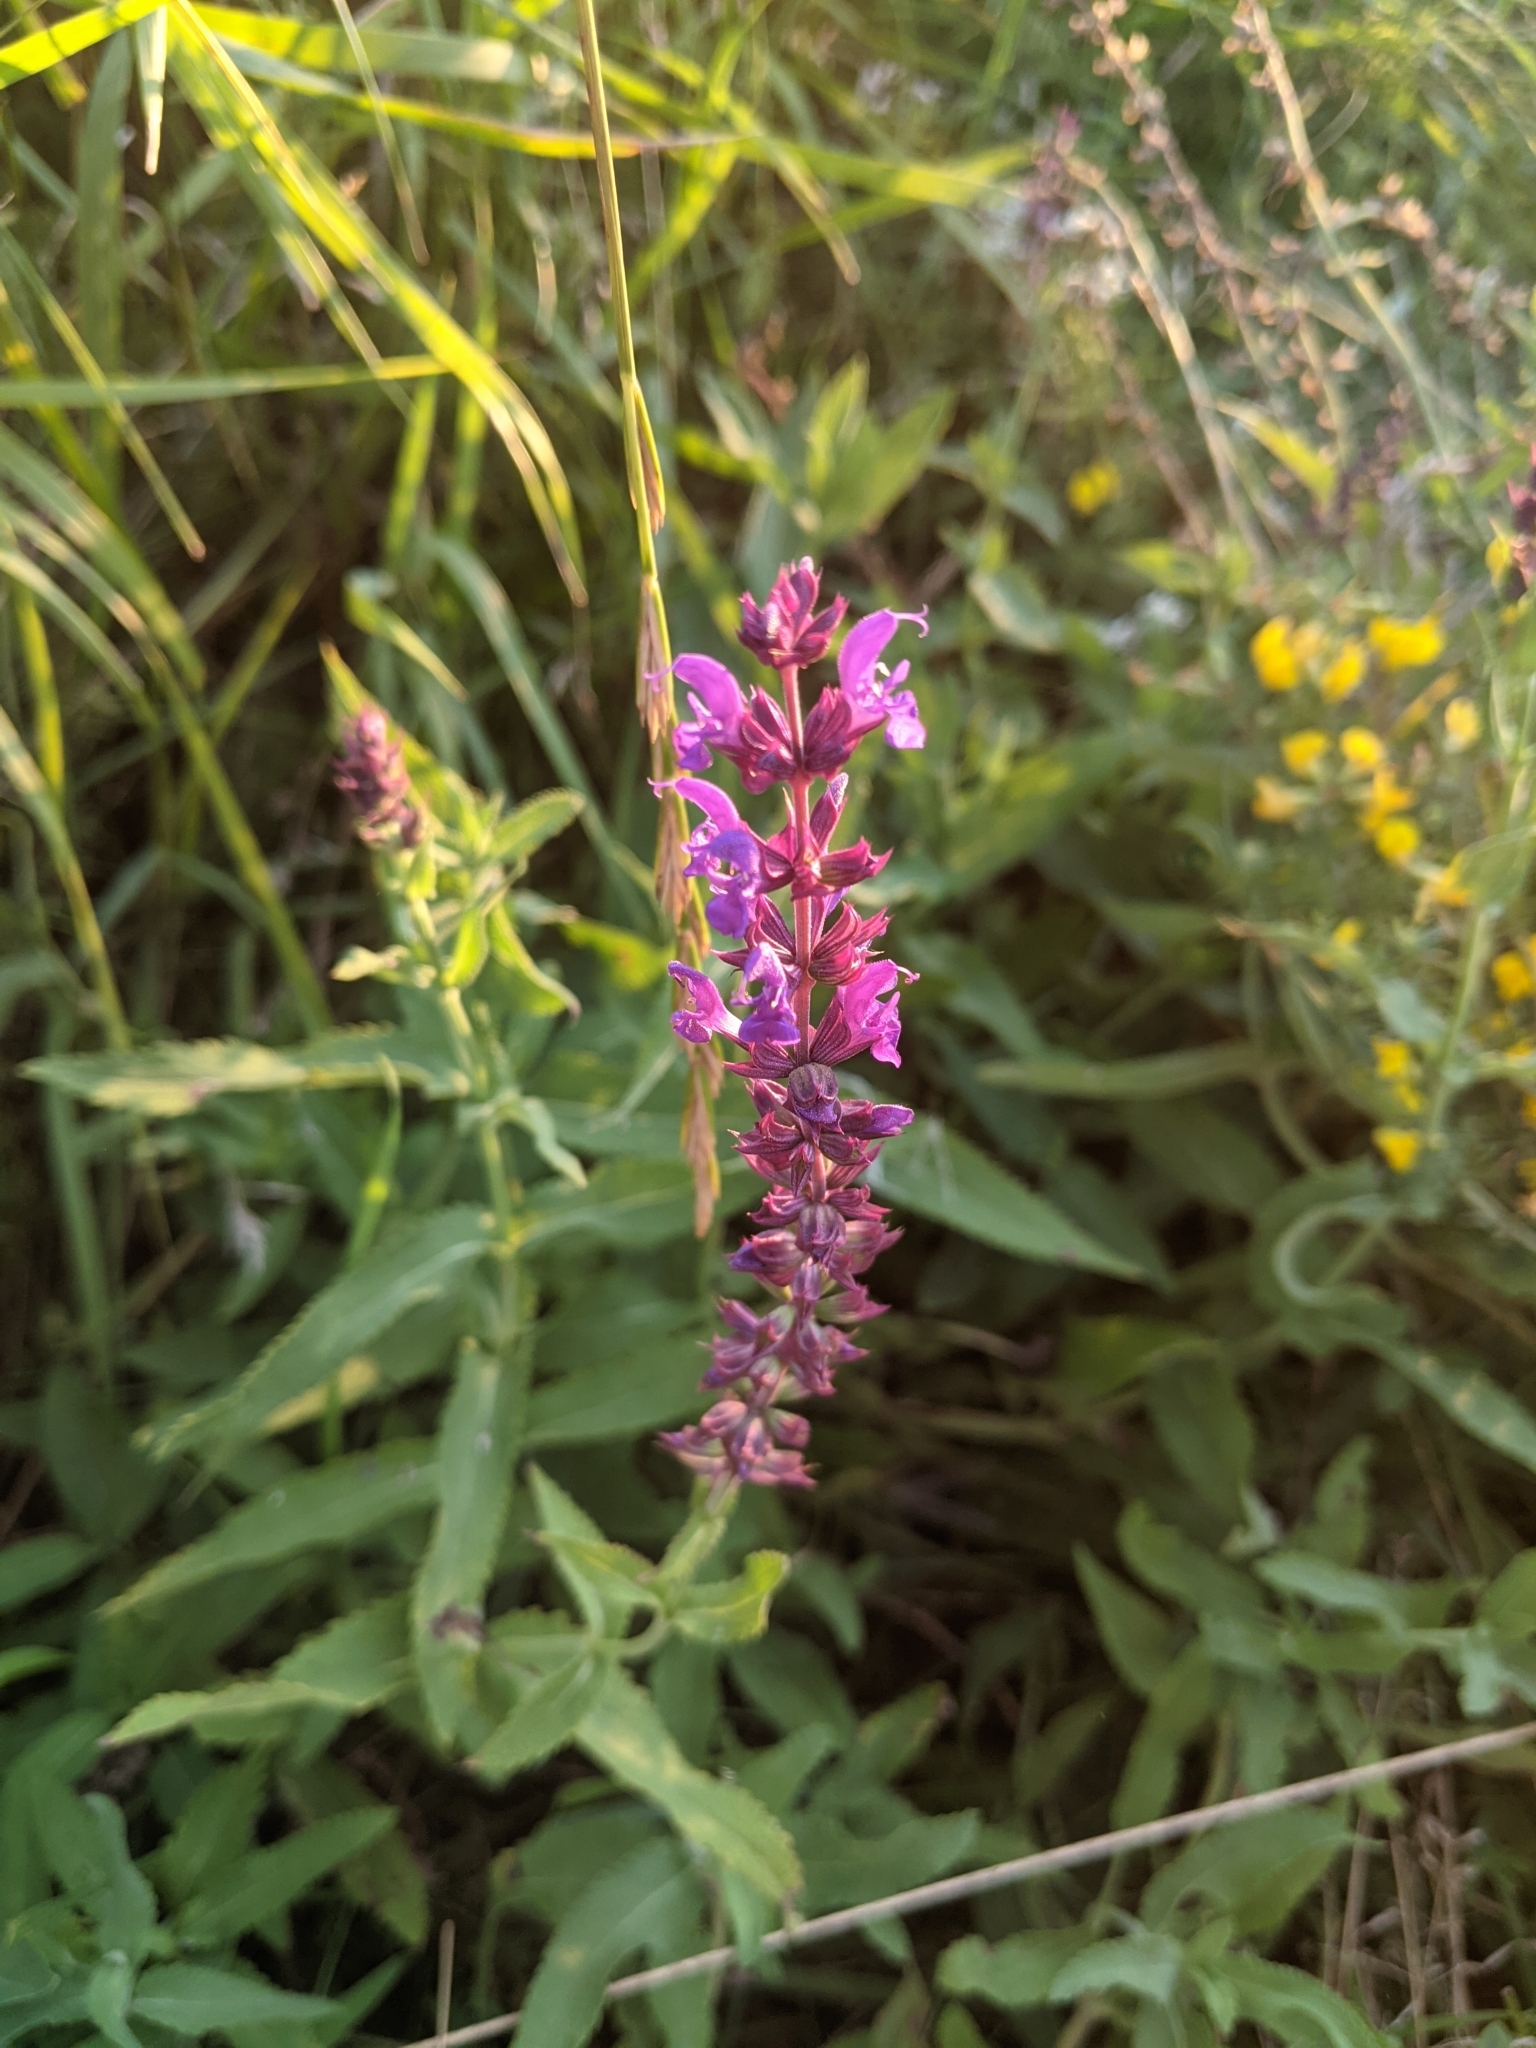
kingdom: Plantae
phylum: Tracheophyta
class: Magnoliopsida
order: Lamiales
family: Lamiaceae
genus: Salvia
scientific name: Salvia nemorosa
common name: Balkan clary
